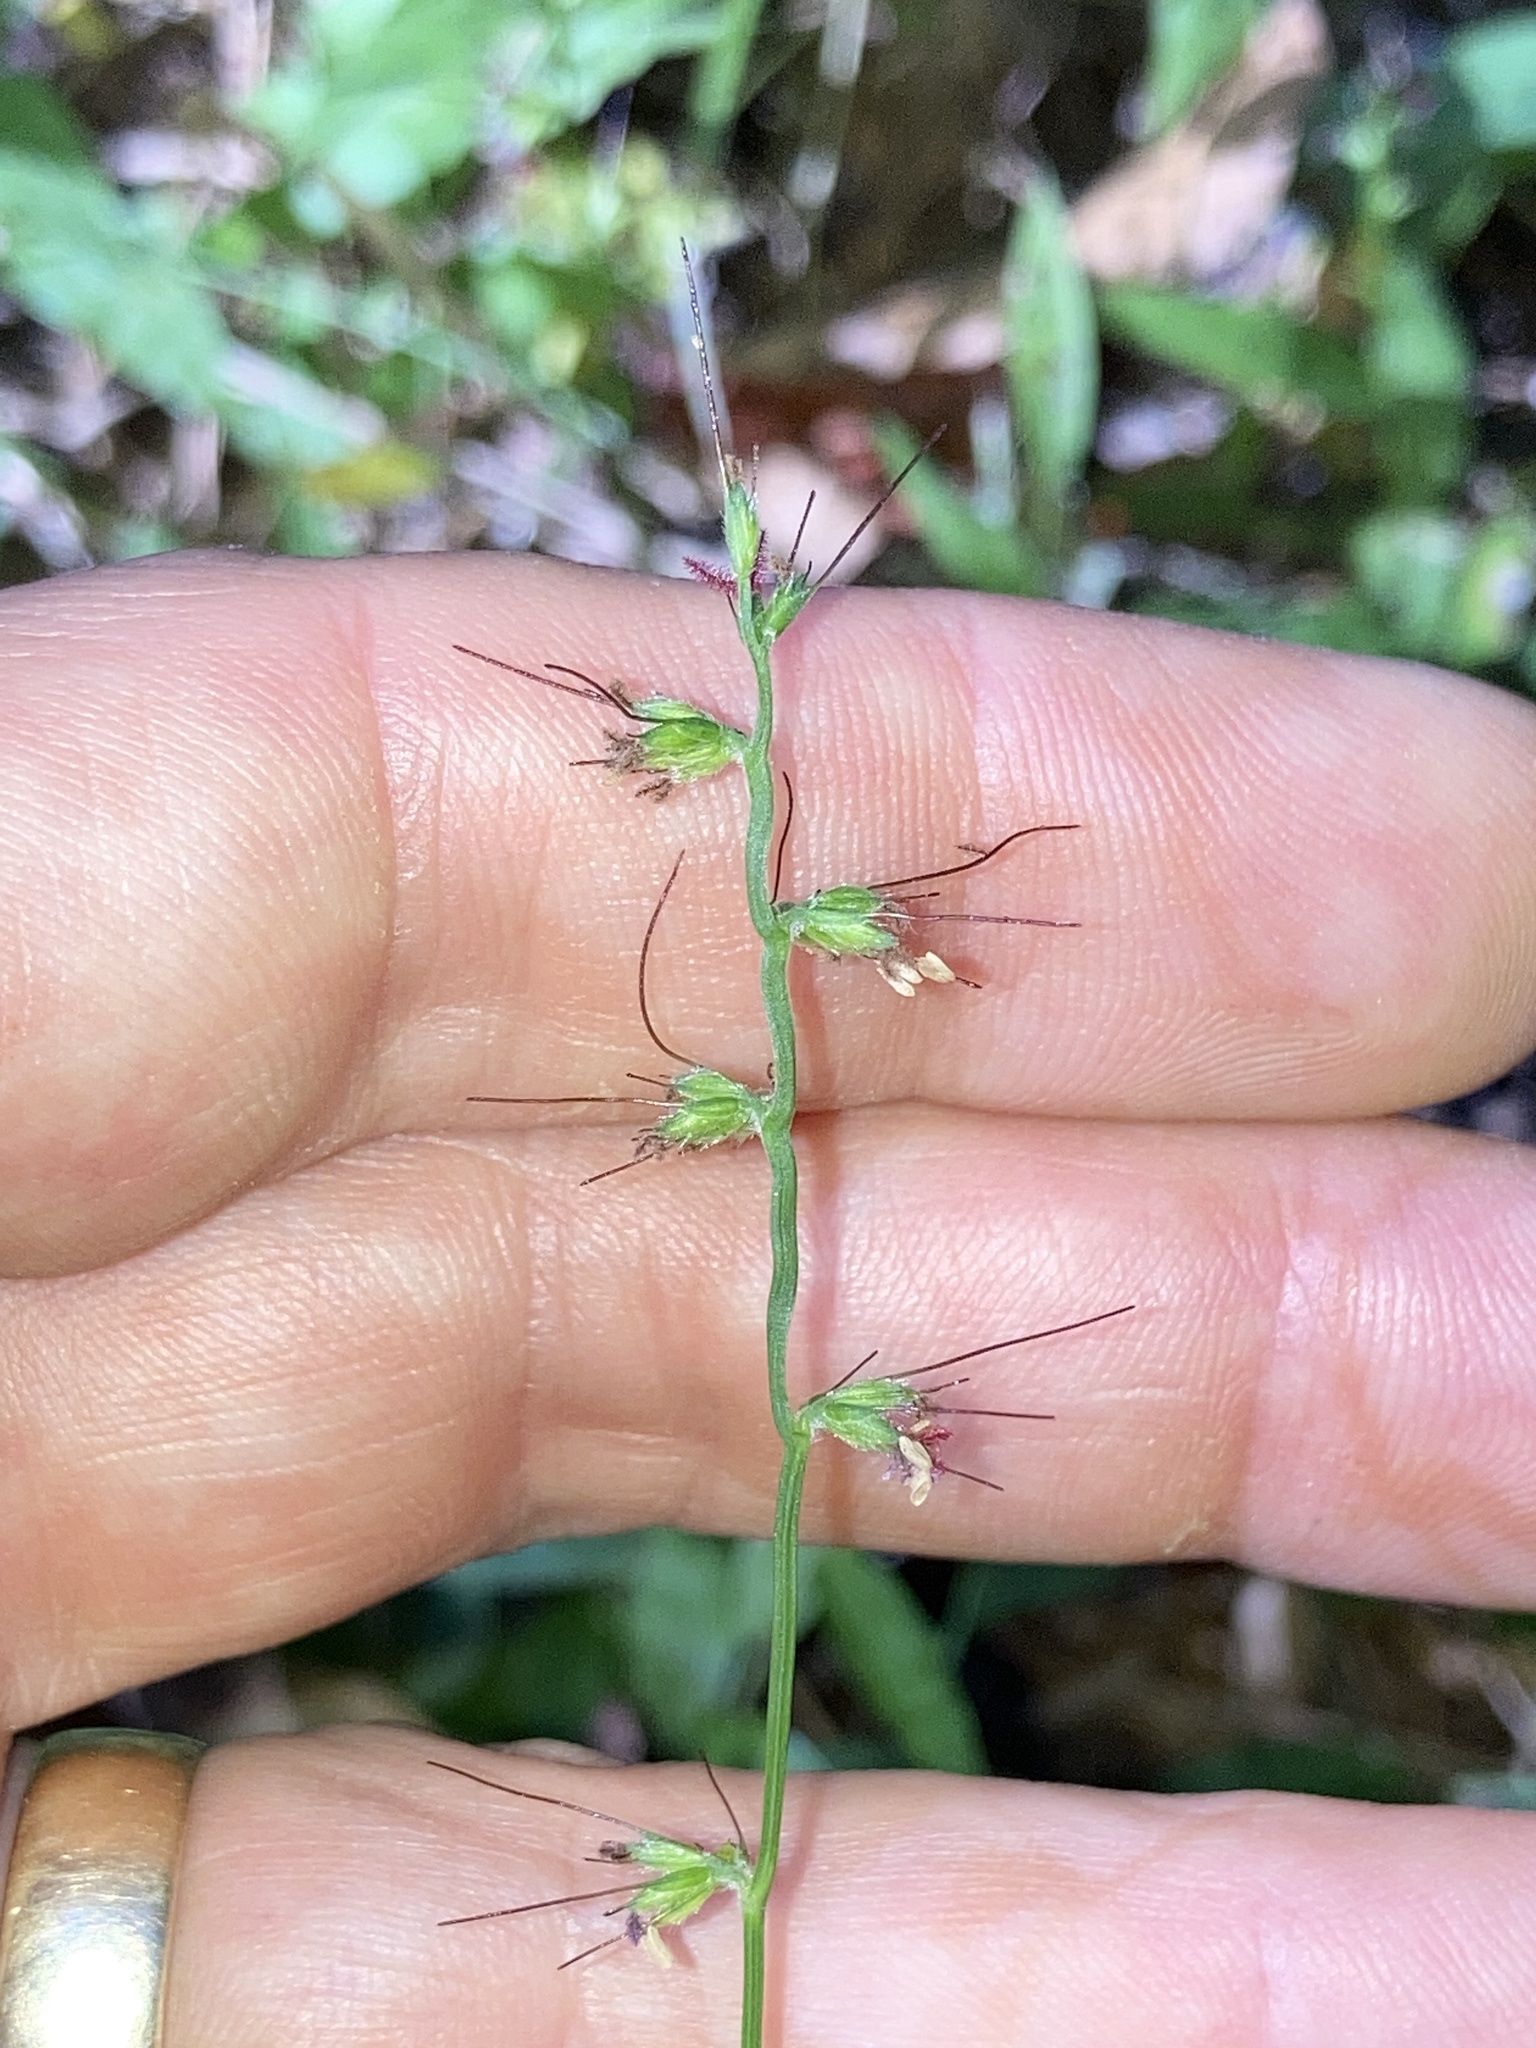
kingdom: Plantae
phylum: Tracheophyta
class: Liliopsida
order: Poales
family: Poaceae
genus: Oplismenus
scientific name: Oplismenus hirtellus
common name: Basketgrass
